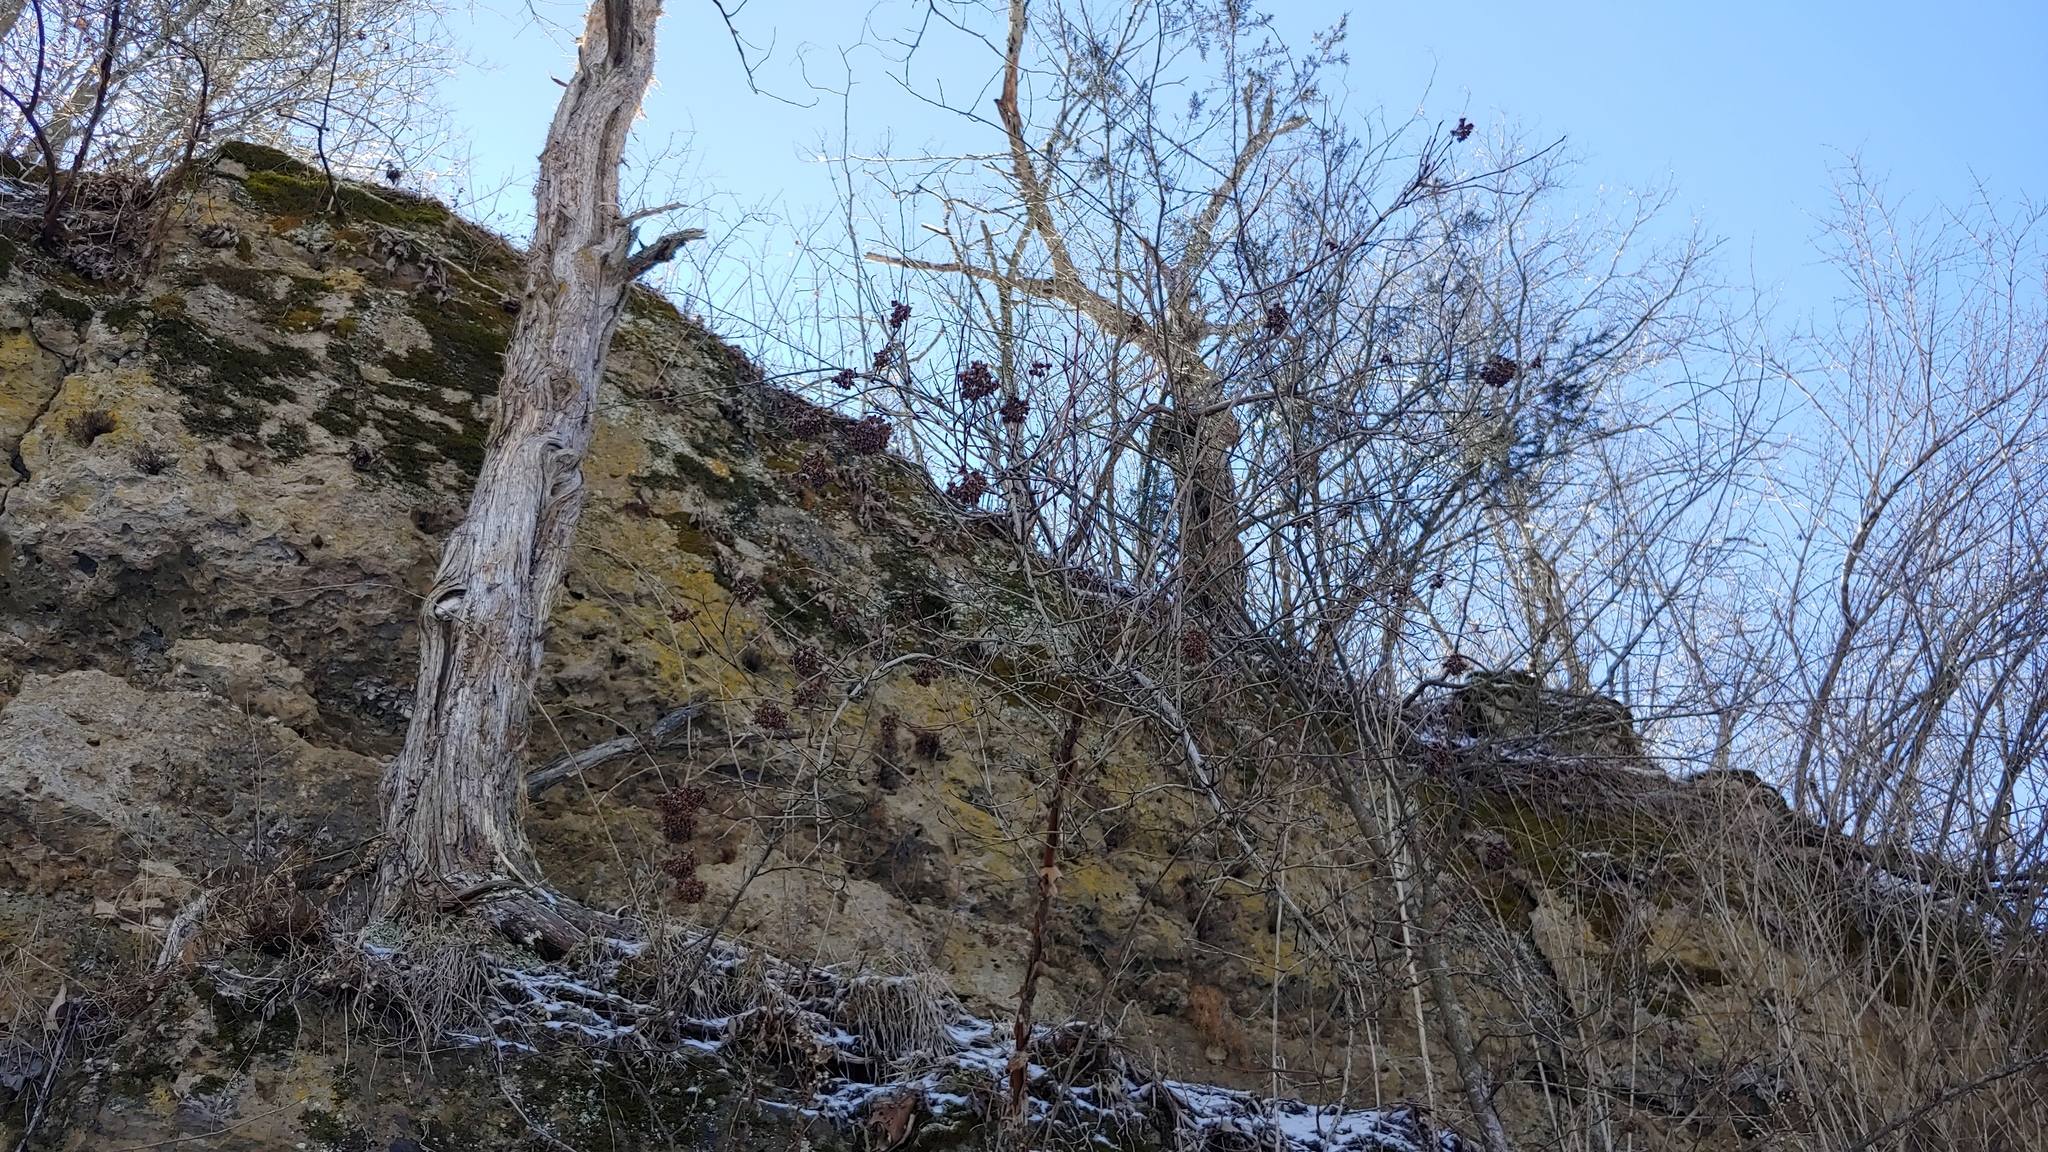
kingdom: Plantae
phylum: Tracheophyta
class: Magnoliopsida
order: Rosales
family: Rosaceae
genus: Physocarpus
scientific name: Physocarpus opulifolius
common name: Ninebark
